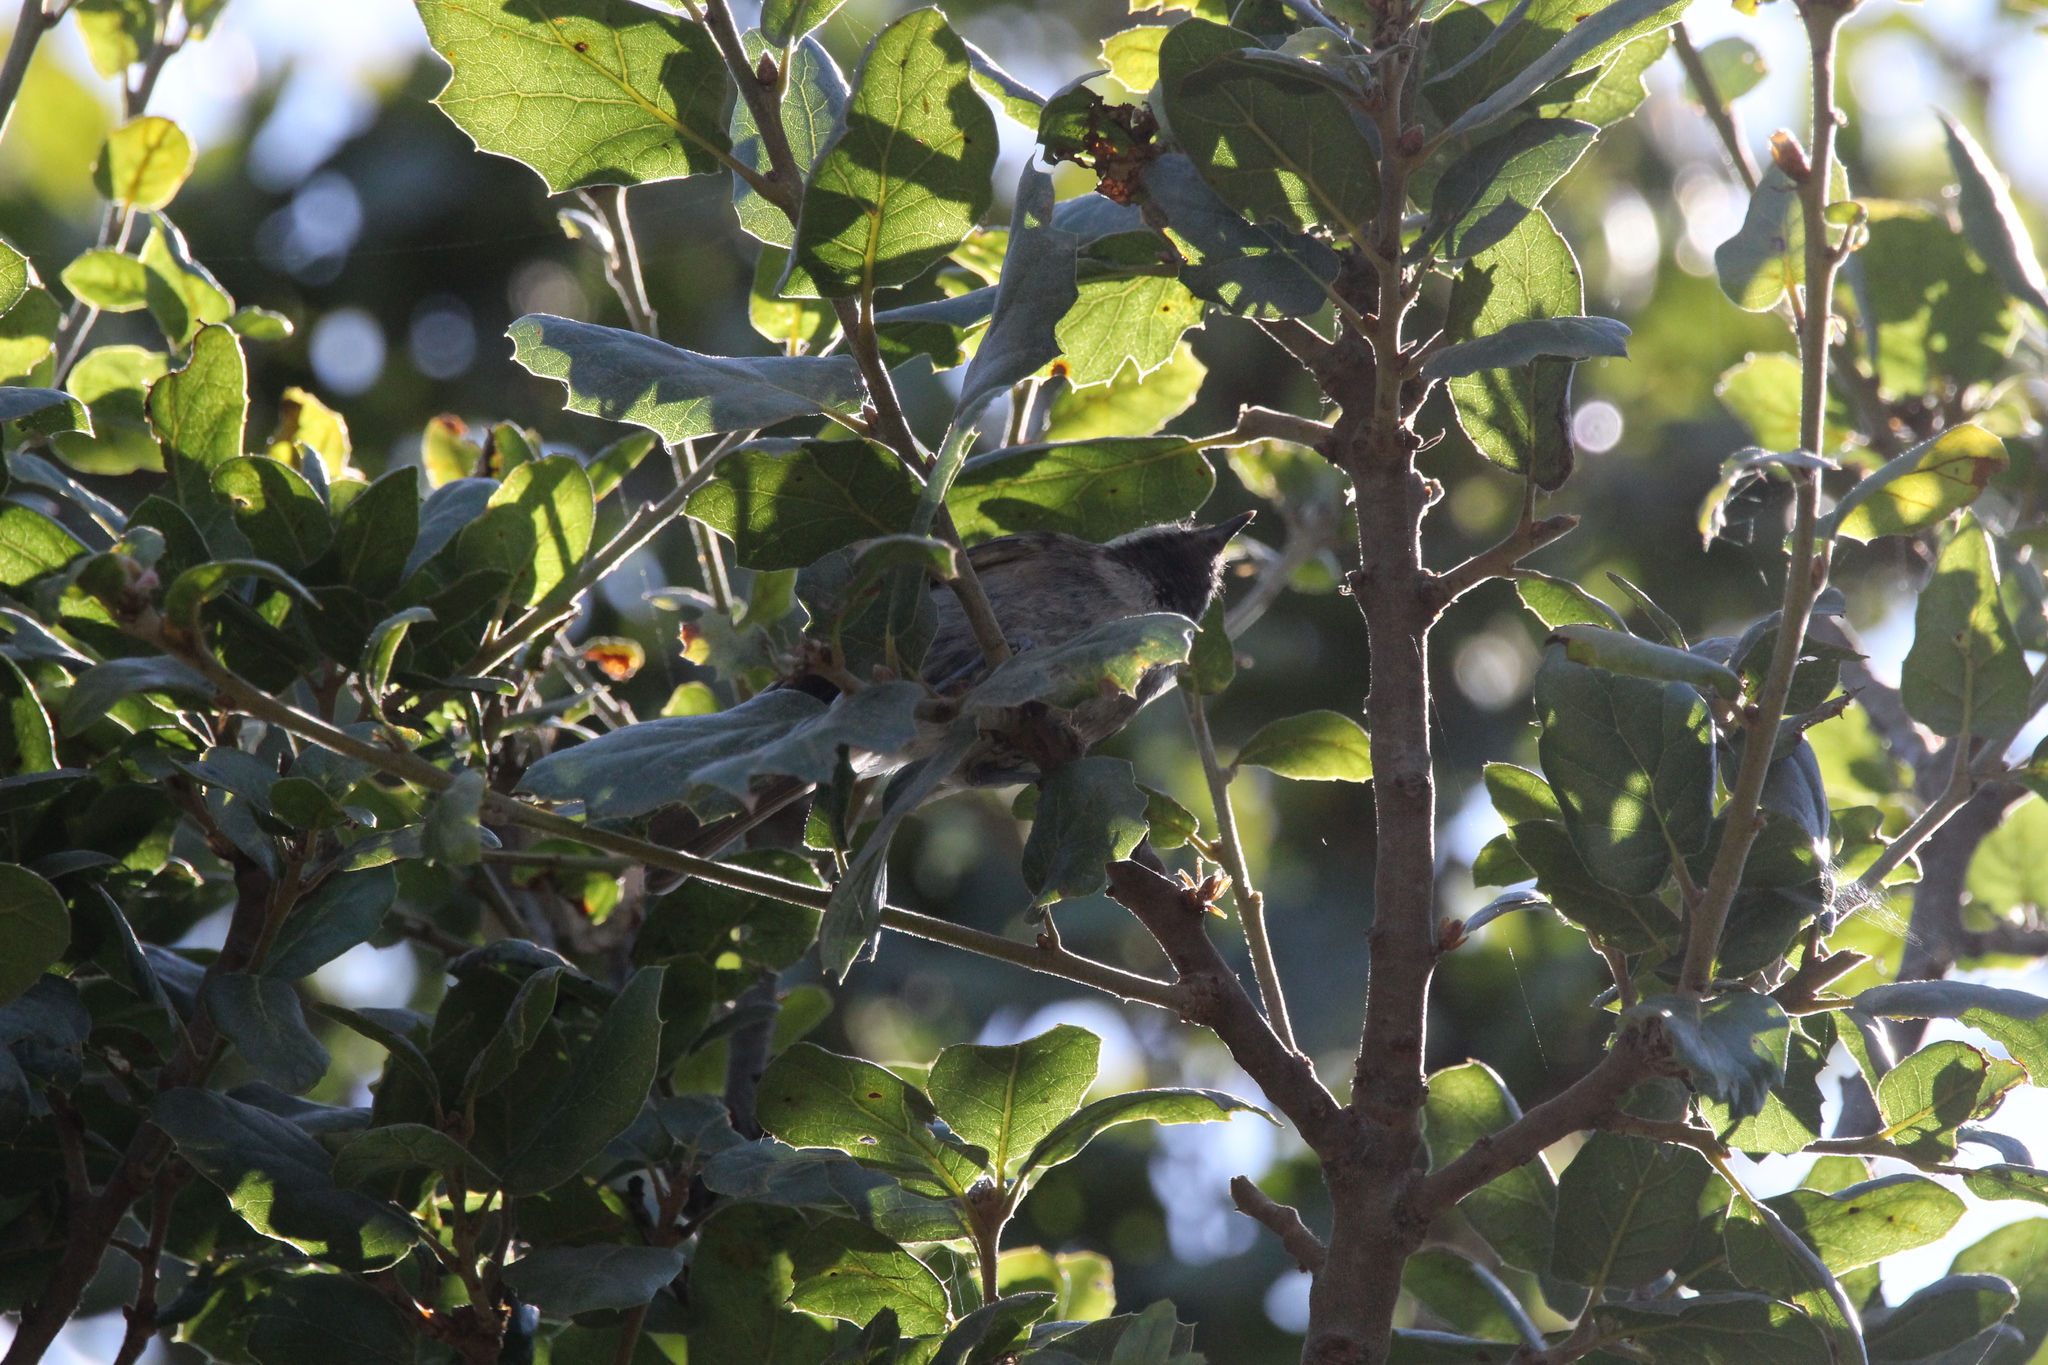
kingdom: Animalia
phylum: Chordata
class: Aves
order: Passeriformes
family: Paridae
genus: Poecile
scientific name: Poecile rufescens
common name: Chestnut-backed chickadee
